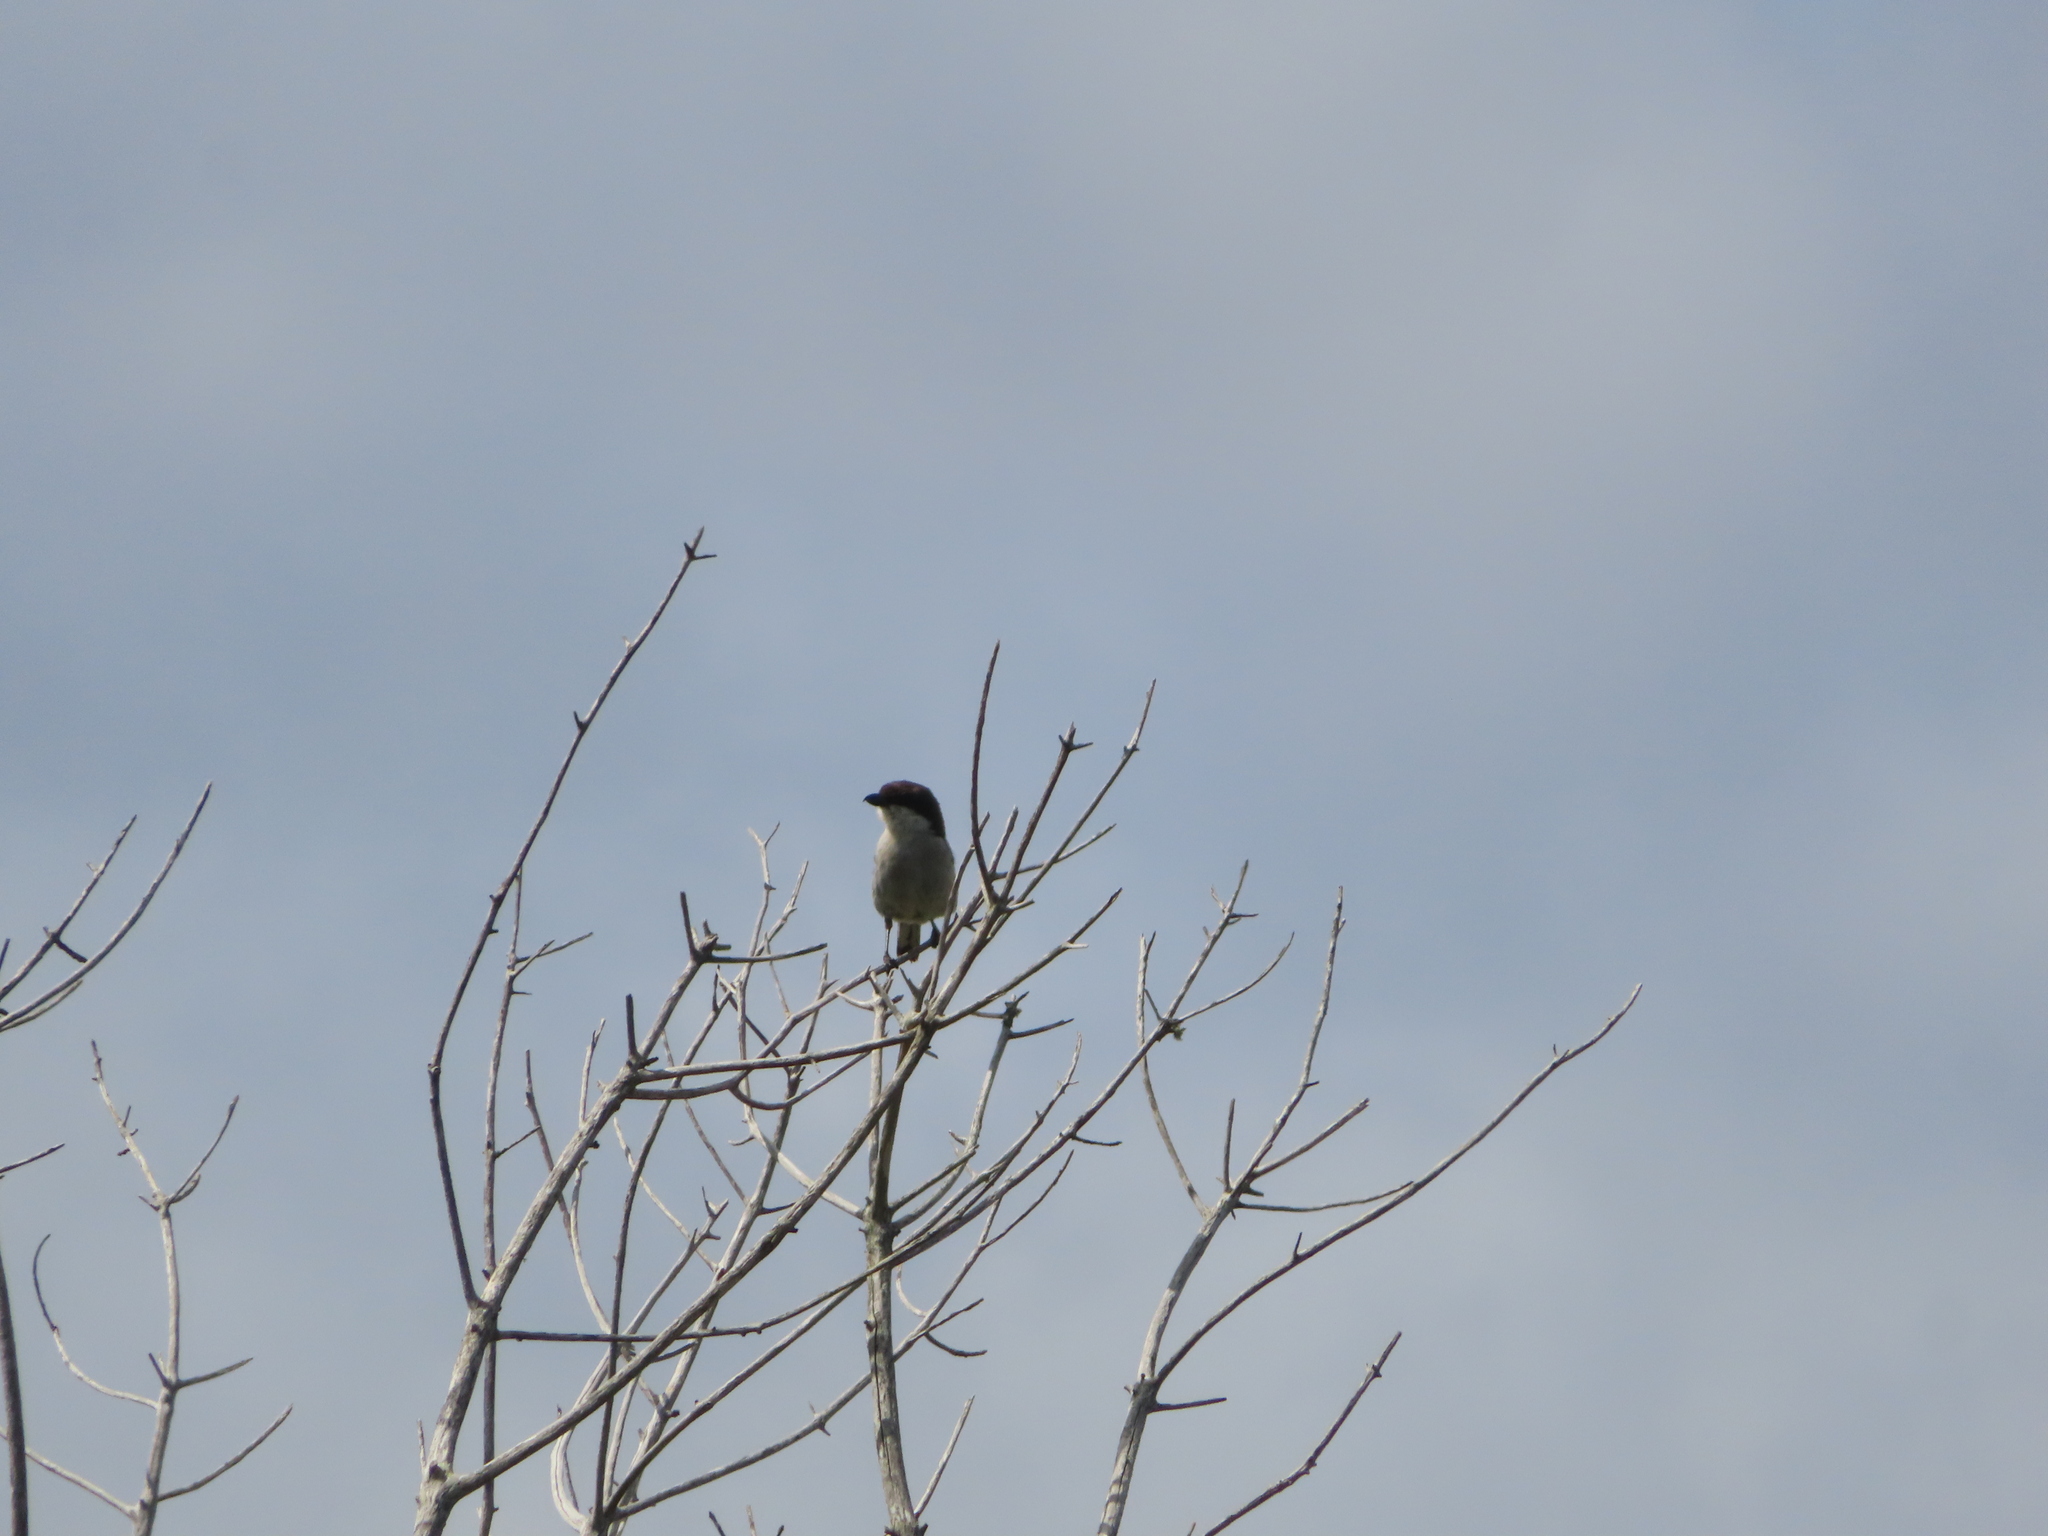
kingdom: Animalia
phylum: Chordata
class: Aves
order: Passeriformes
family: Laniidae
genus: Lanius
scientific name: Lanius collaris
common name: Southern fiscal
